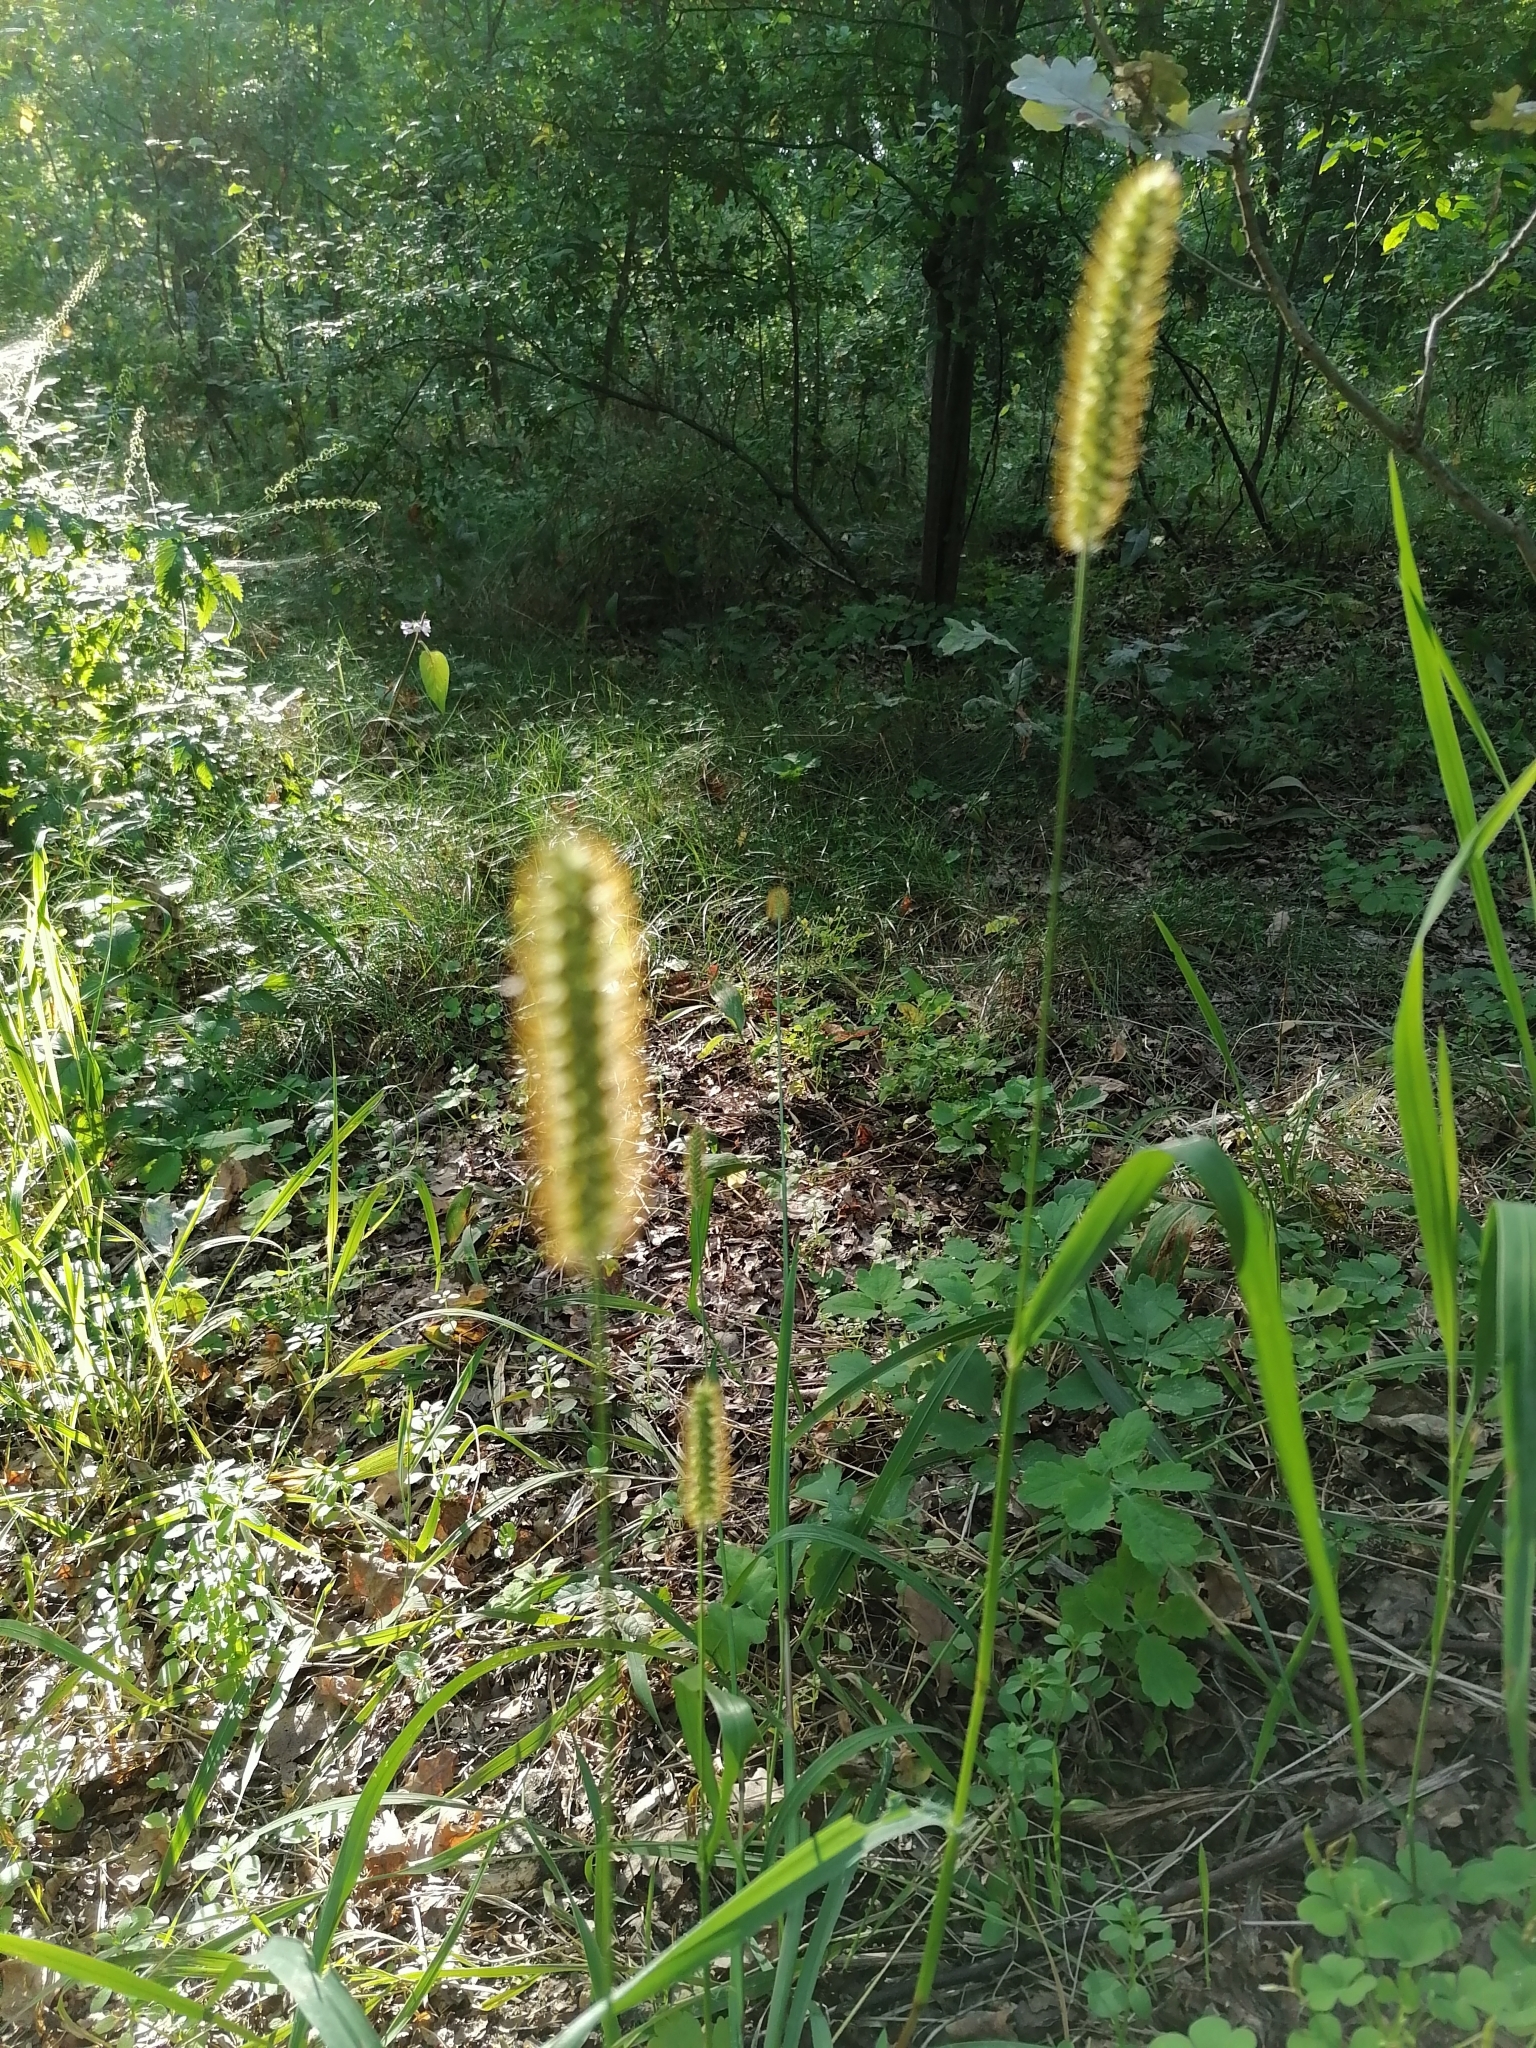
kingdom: Plantae
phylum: Tracheophyta
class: Liliopsida
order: Poales
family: Poaceae
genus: Setaria
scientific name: Setaria pumila
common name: Yellow bristle-grass
